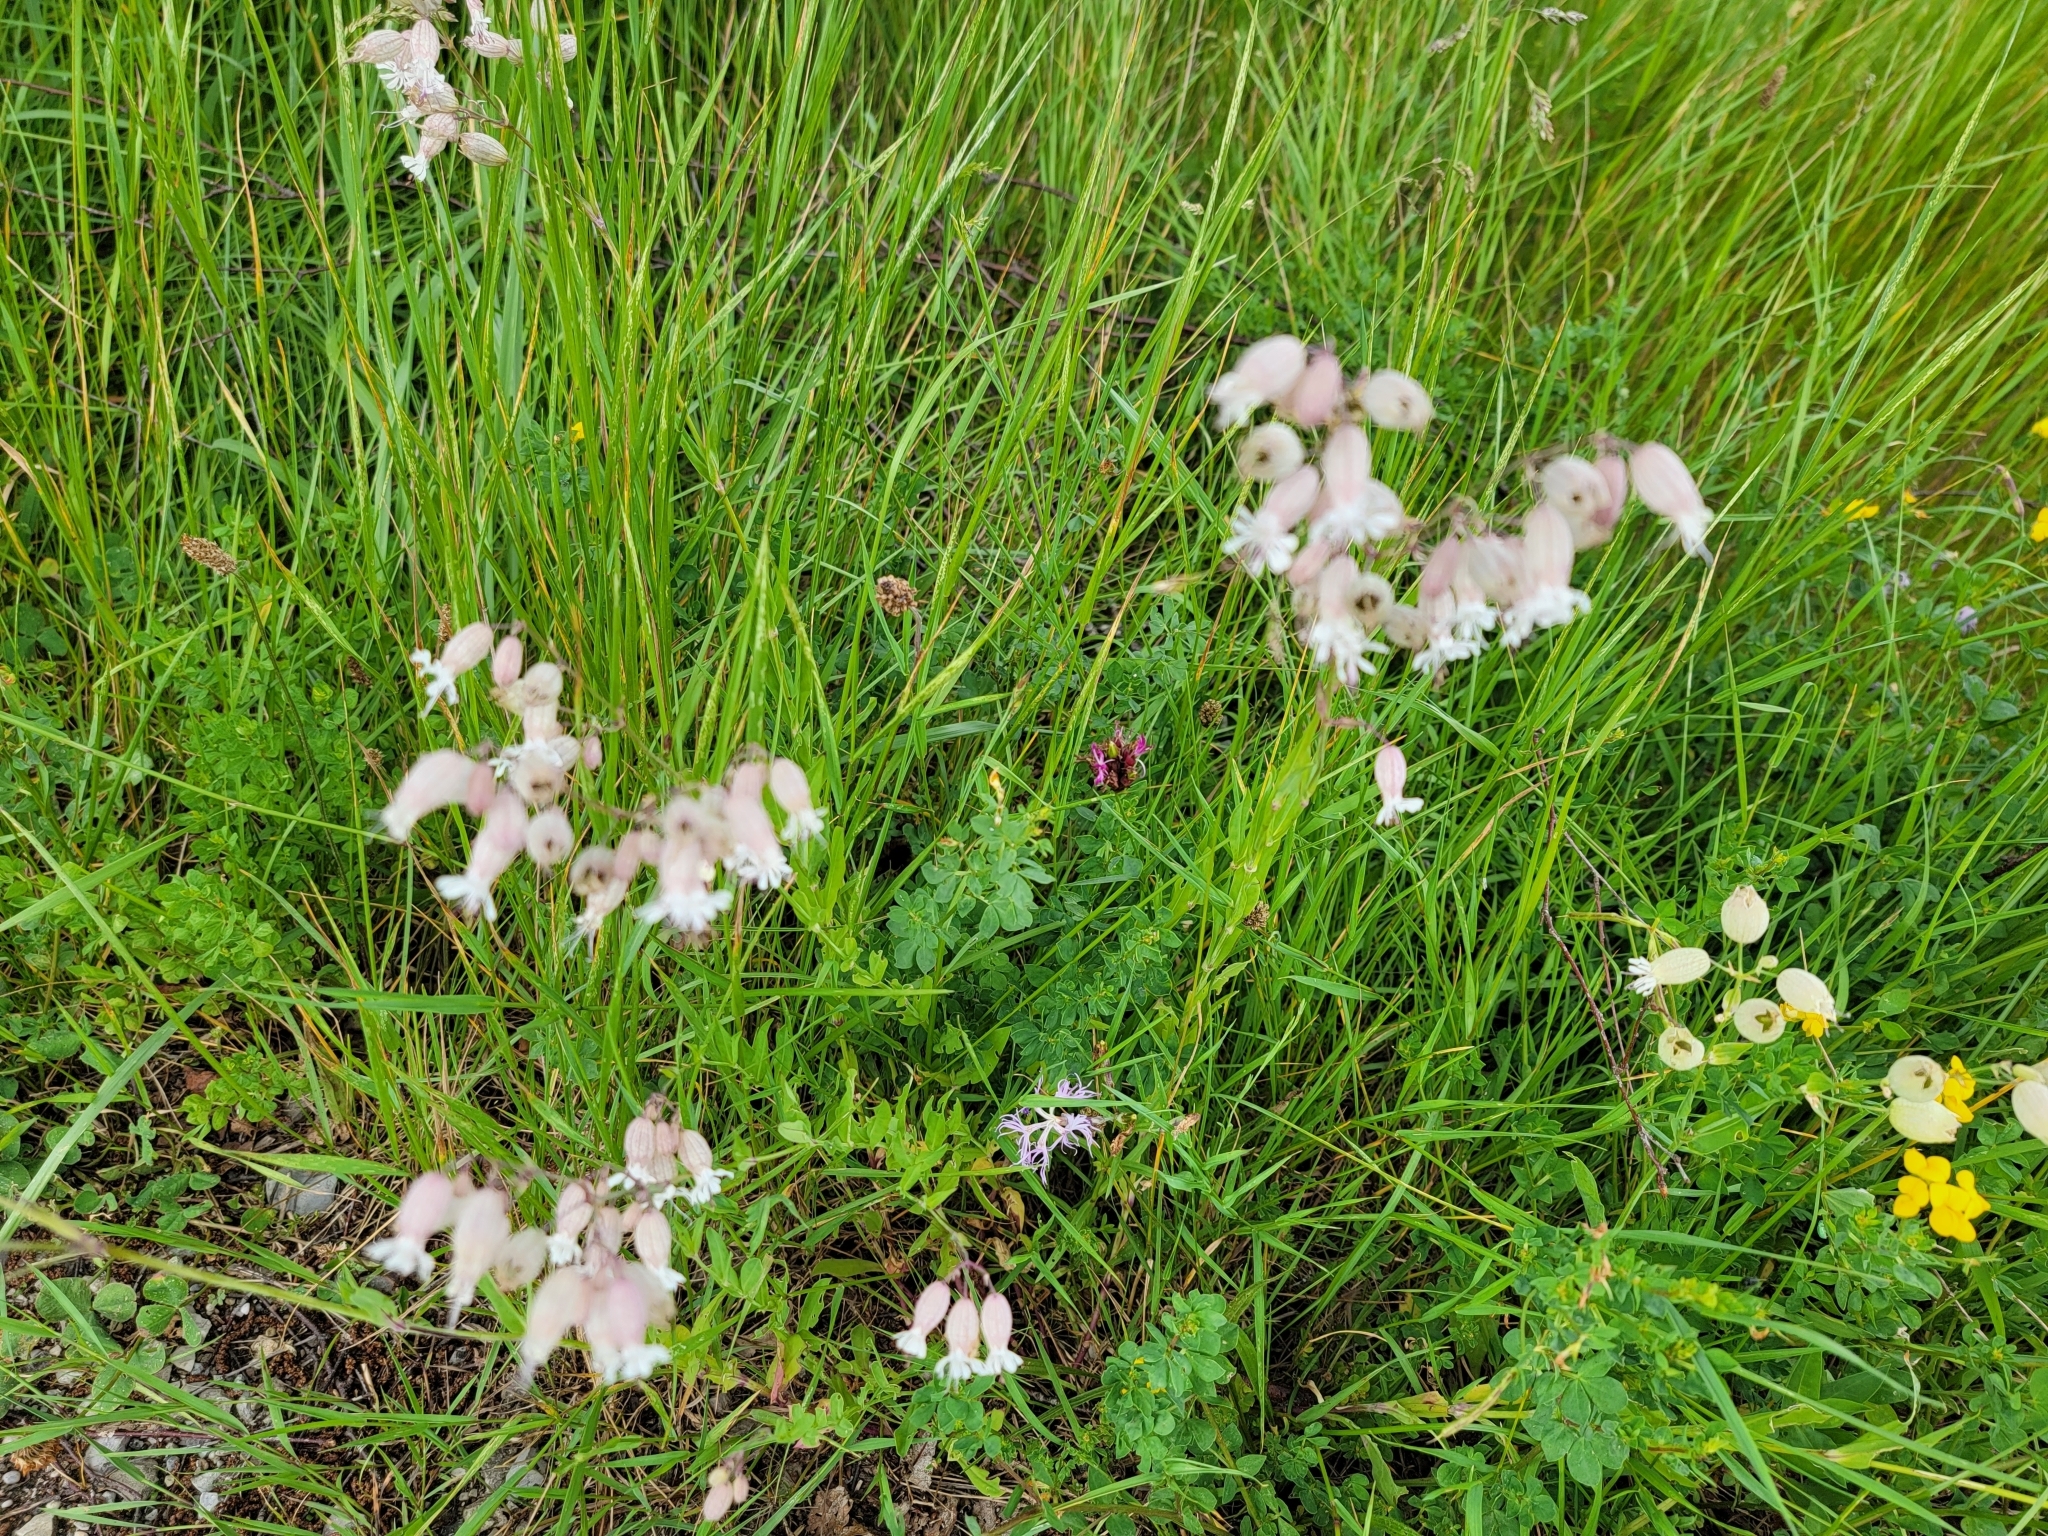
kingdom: Plantae
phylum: Tracheophyta
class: Magnoliopsida
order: Caryophyllales
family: Caryophyllaceae
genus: Silene
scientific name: Silene vulgaris
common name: Bladder campion
